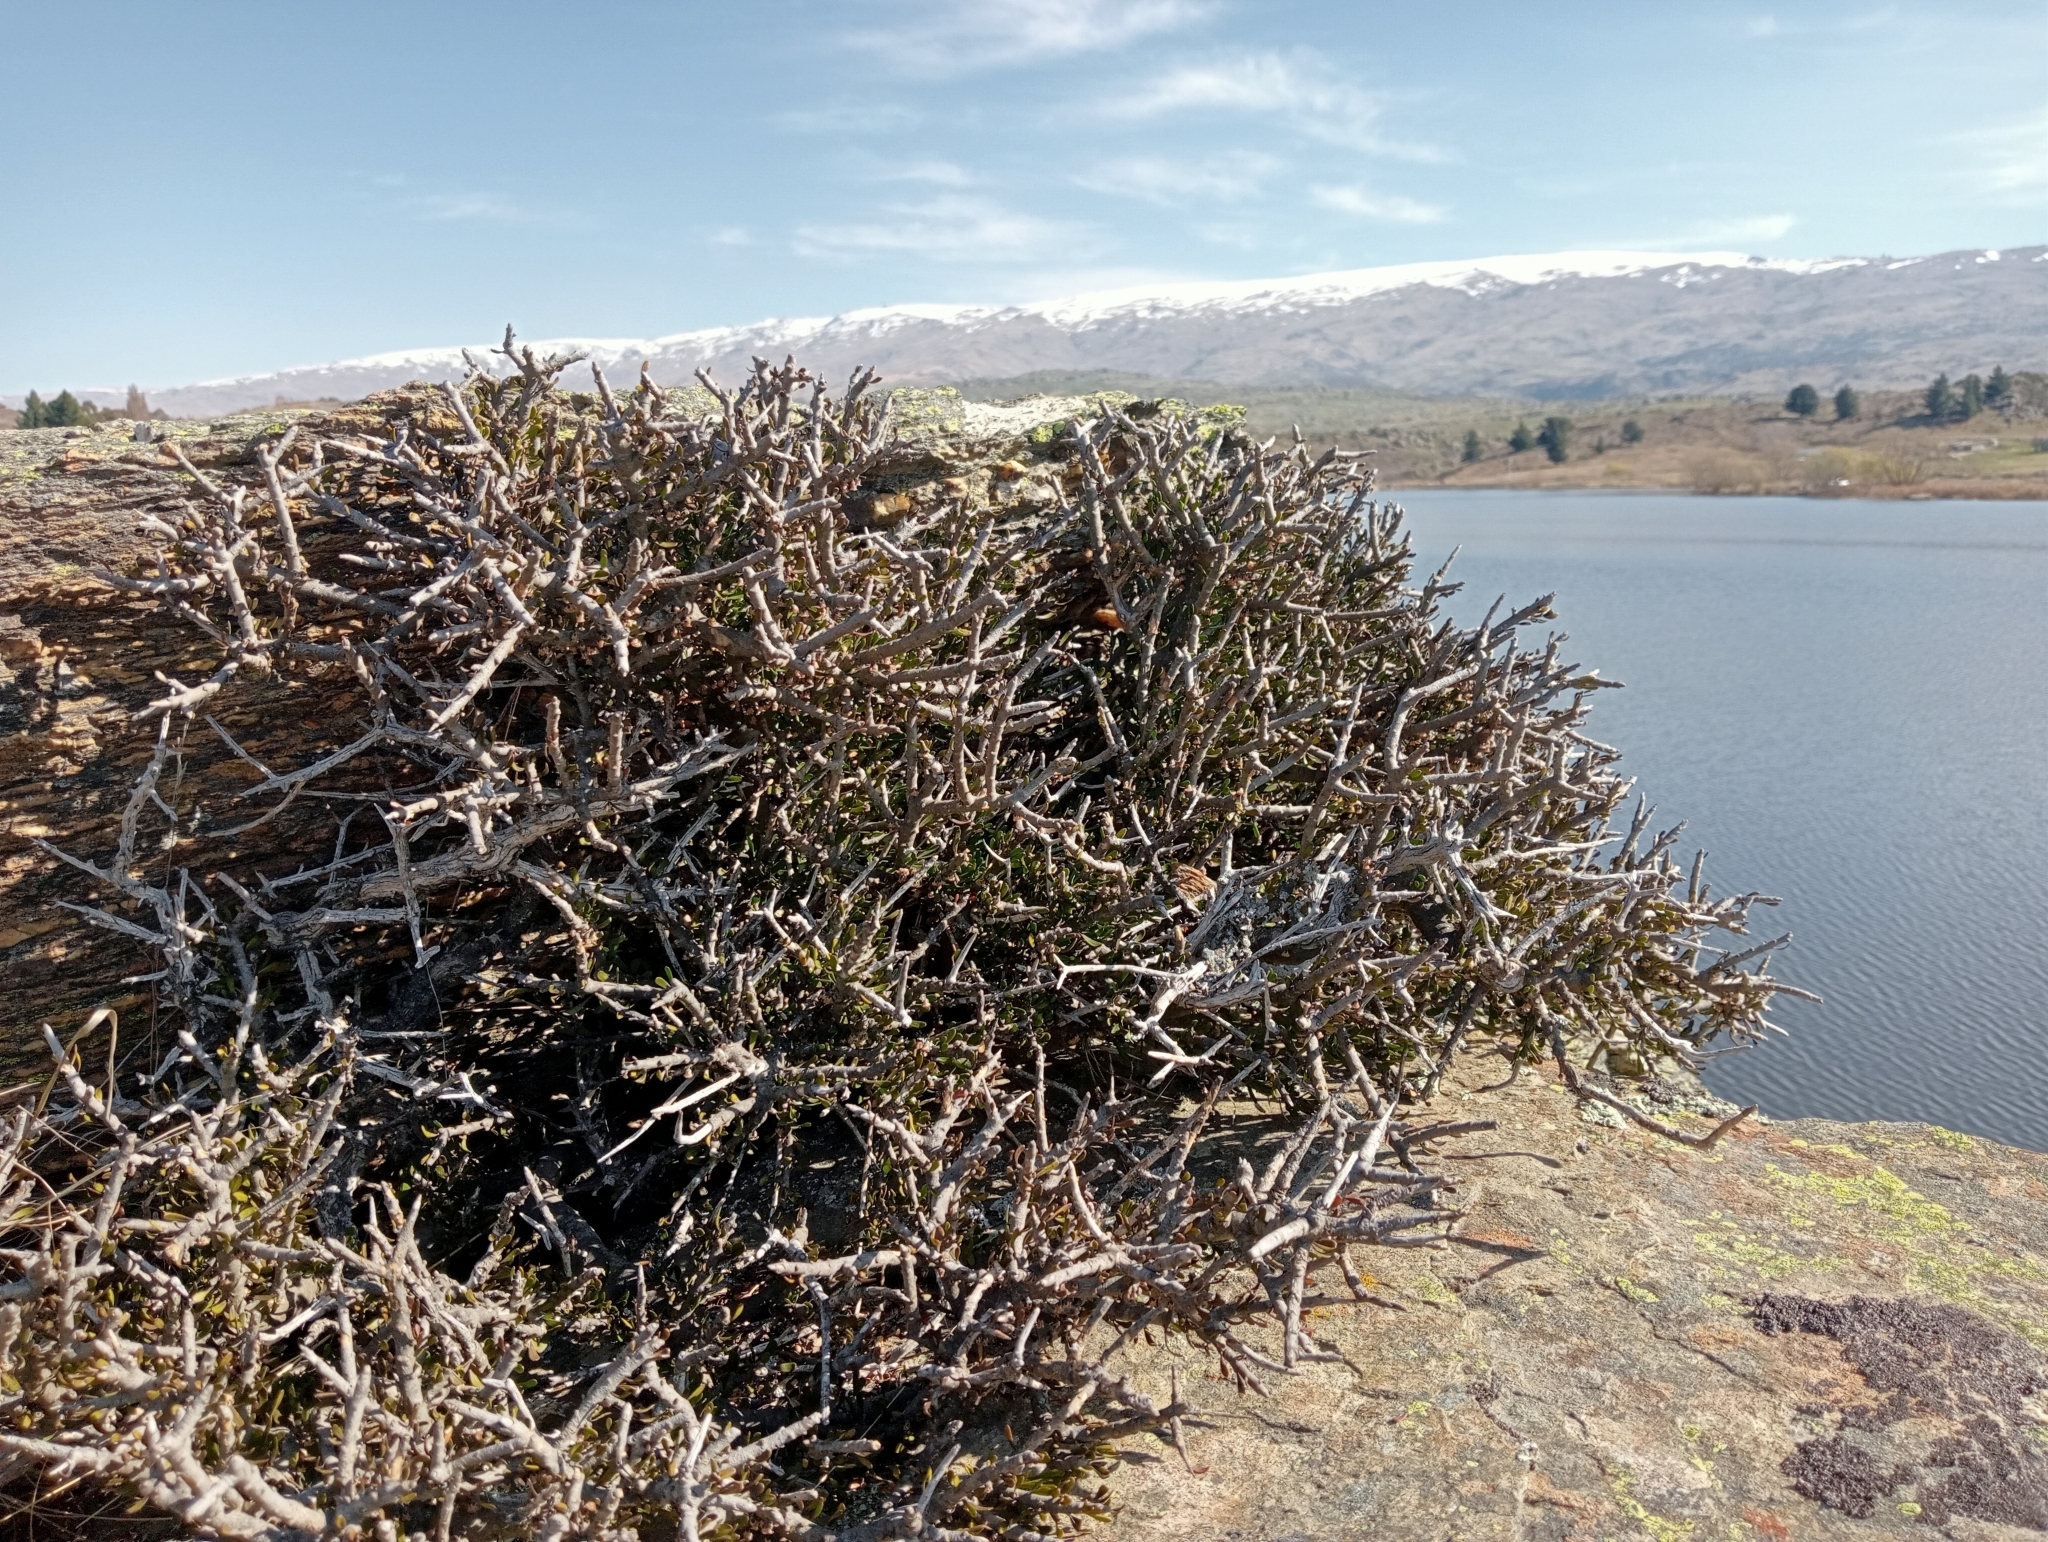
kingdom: Plantae
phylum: Tracheophyta
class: Magnoliopsida
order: Malpighiales
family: Violaceae
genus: Melicytus
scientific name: Melicytus alpinus
